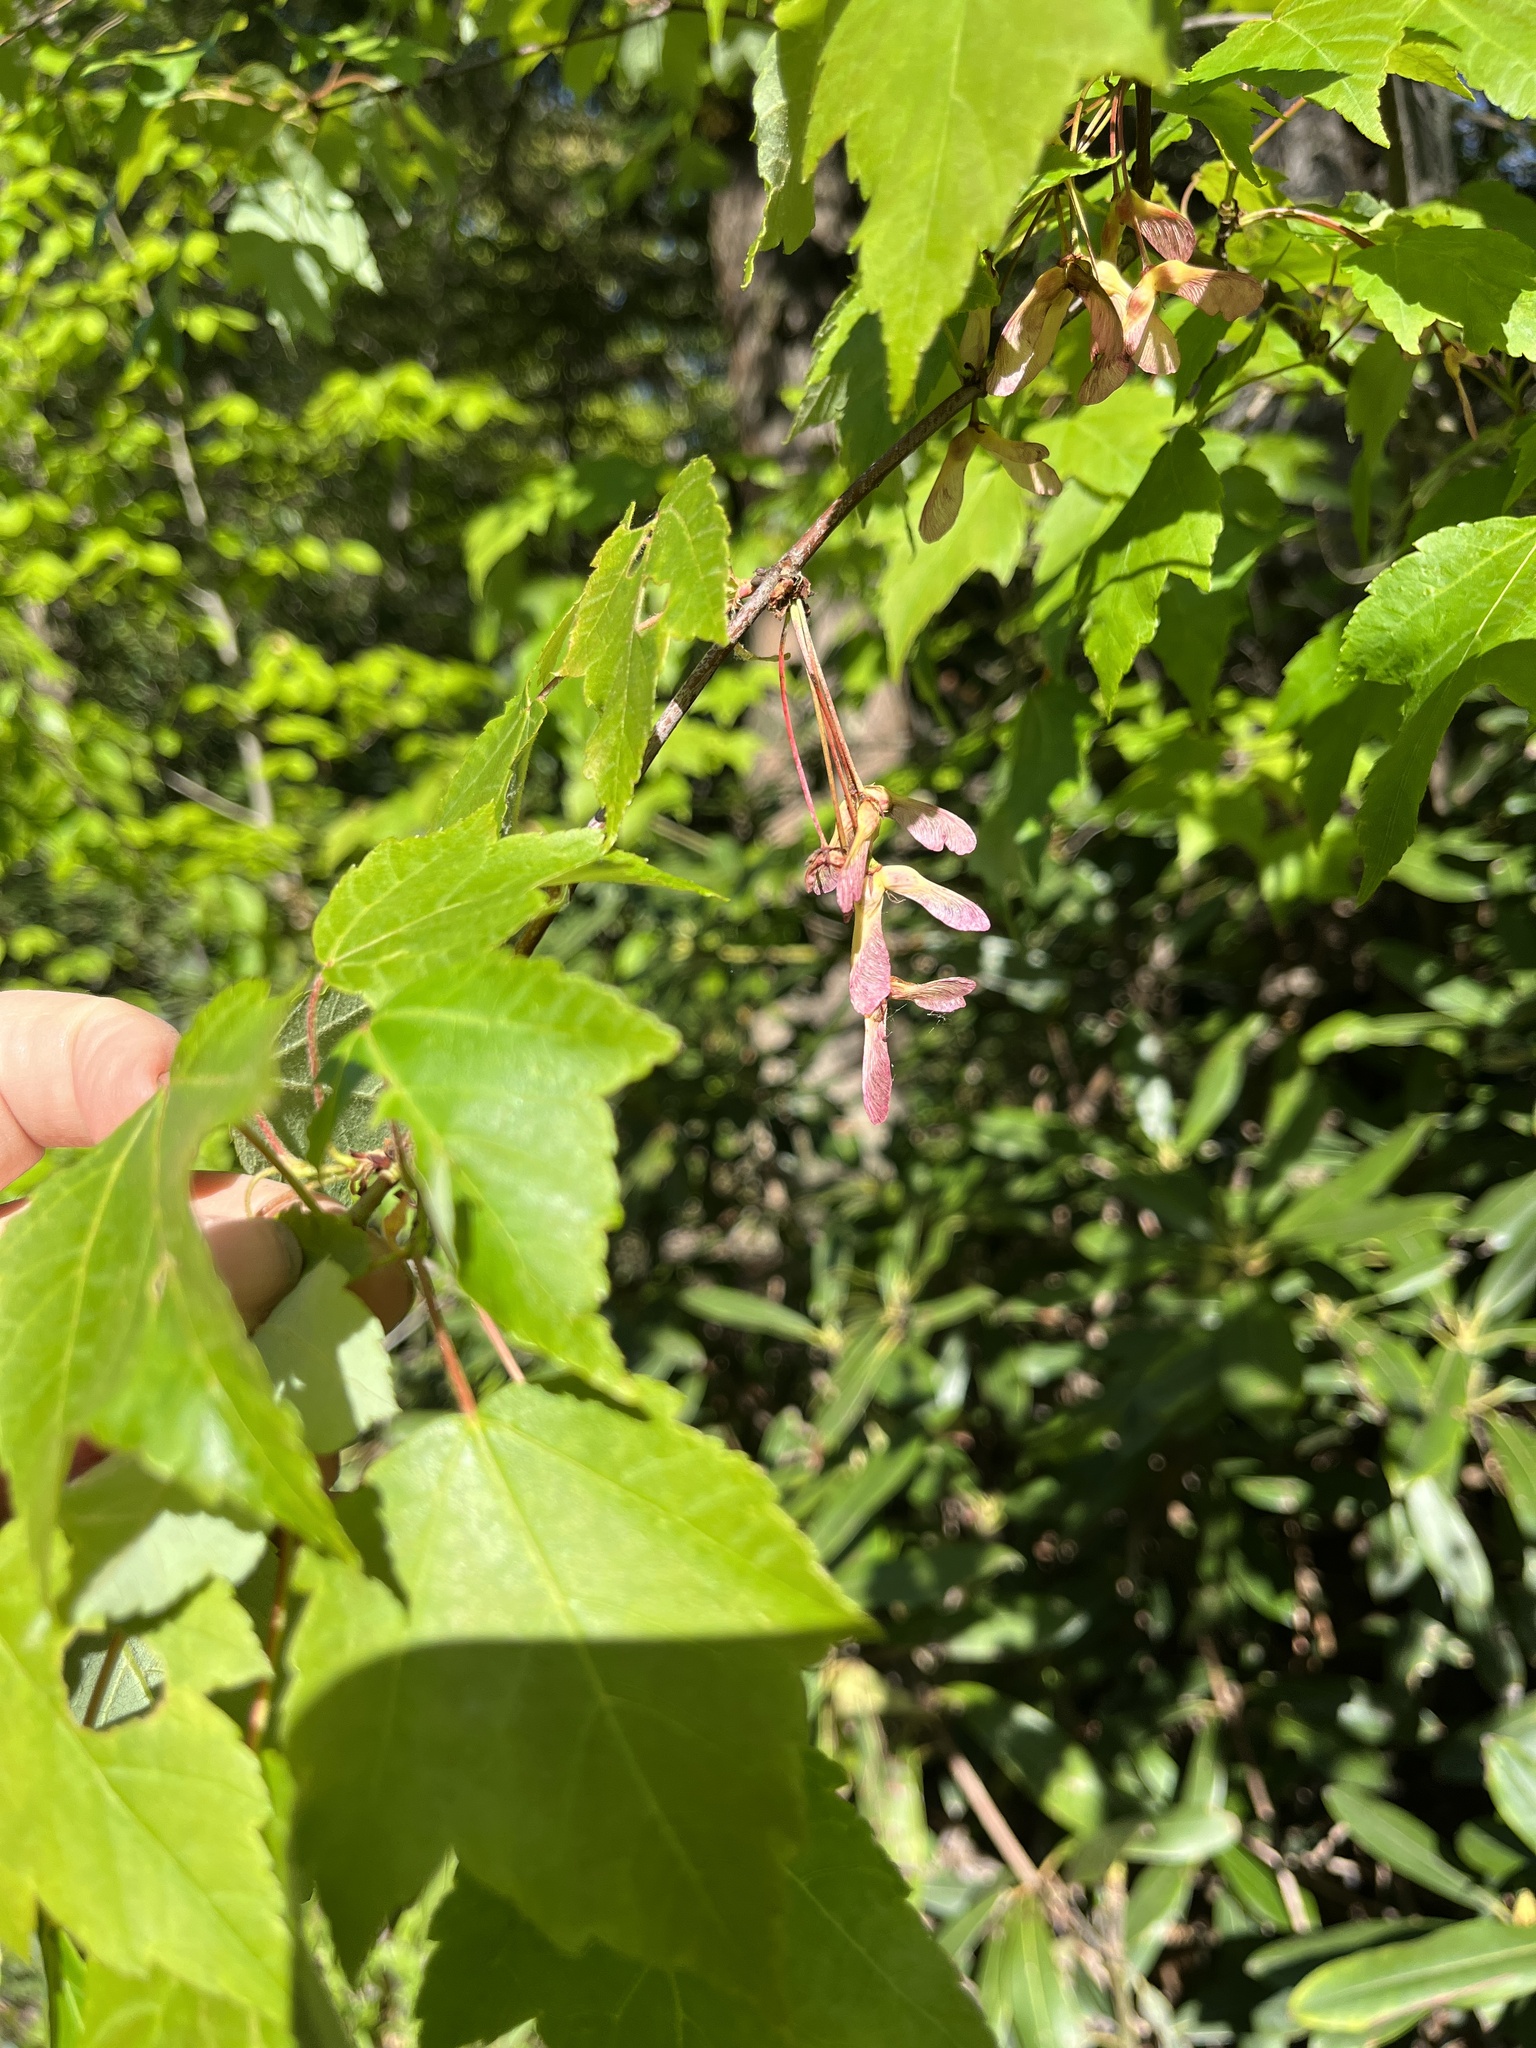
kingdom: Plantae
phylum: Tracheophyta
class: Magnoliopsida
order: Sapindales
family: Sapindaceae
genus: Acer
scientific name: Acer rubrum
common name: Red maple
